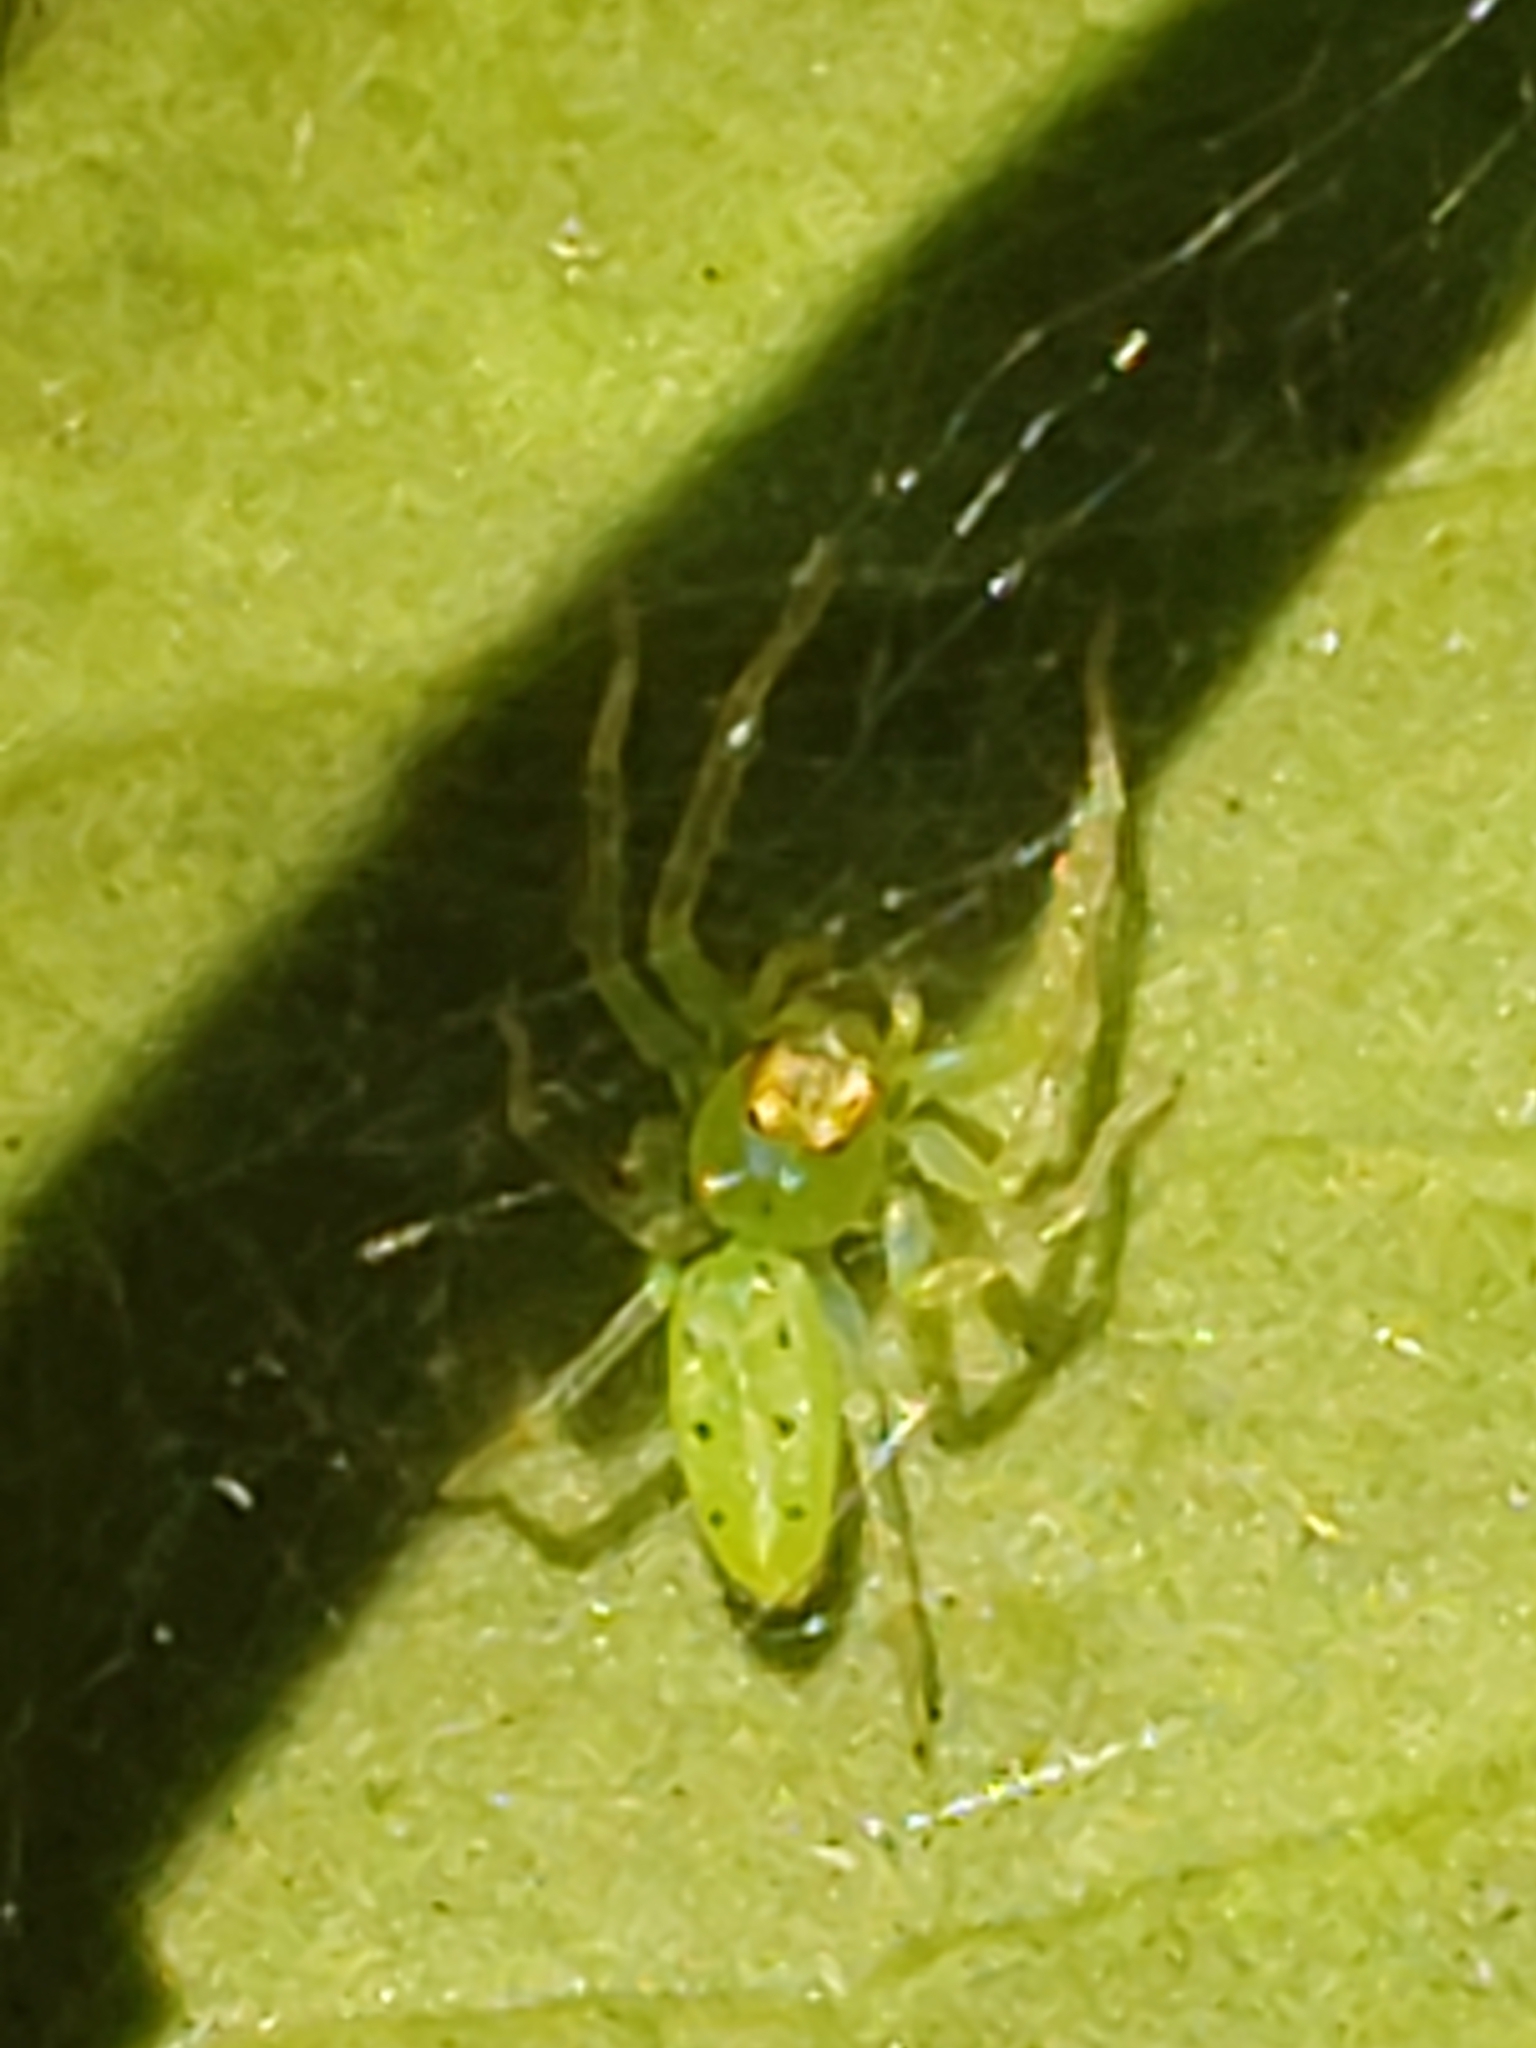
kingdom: Animalia
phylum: Arthropoda
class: Arachnida
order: Araneae
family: Salticidae
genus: Lyssomanes
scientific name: Lyssomanes viridis
